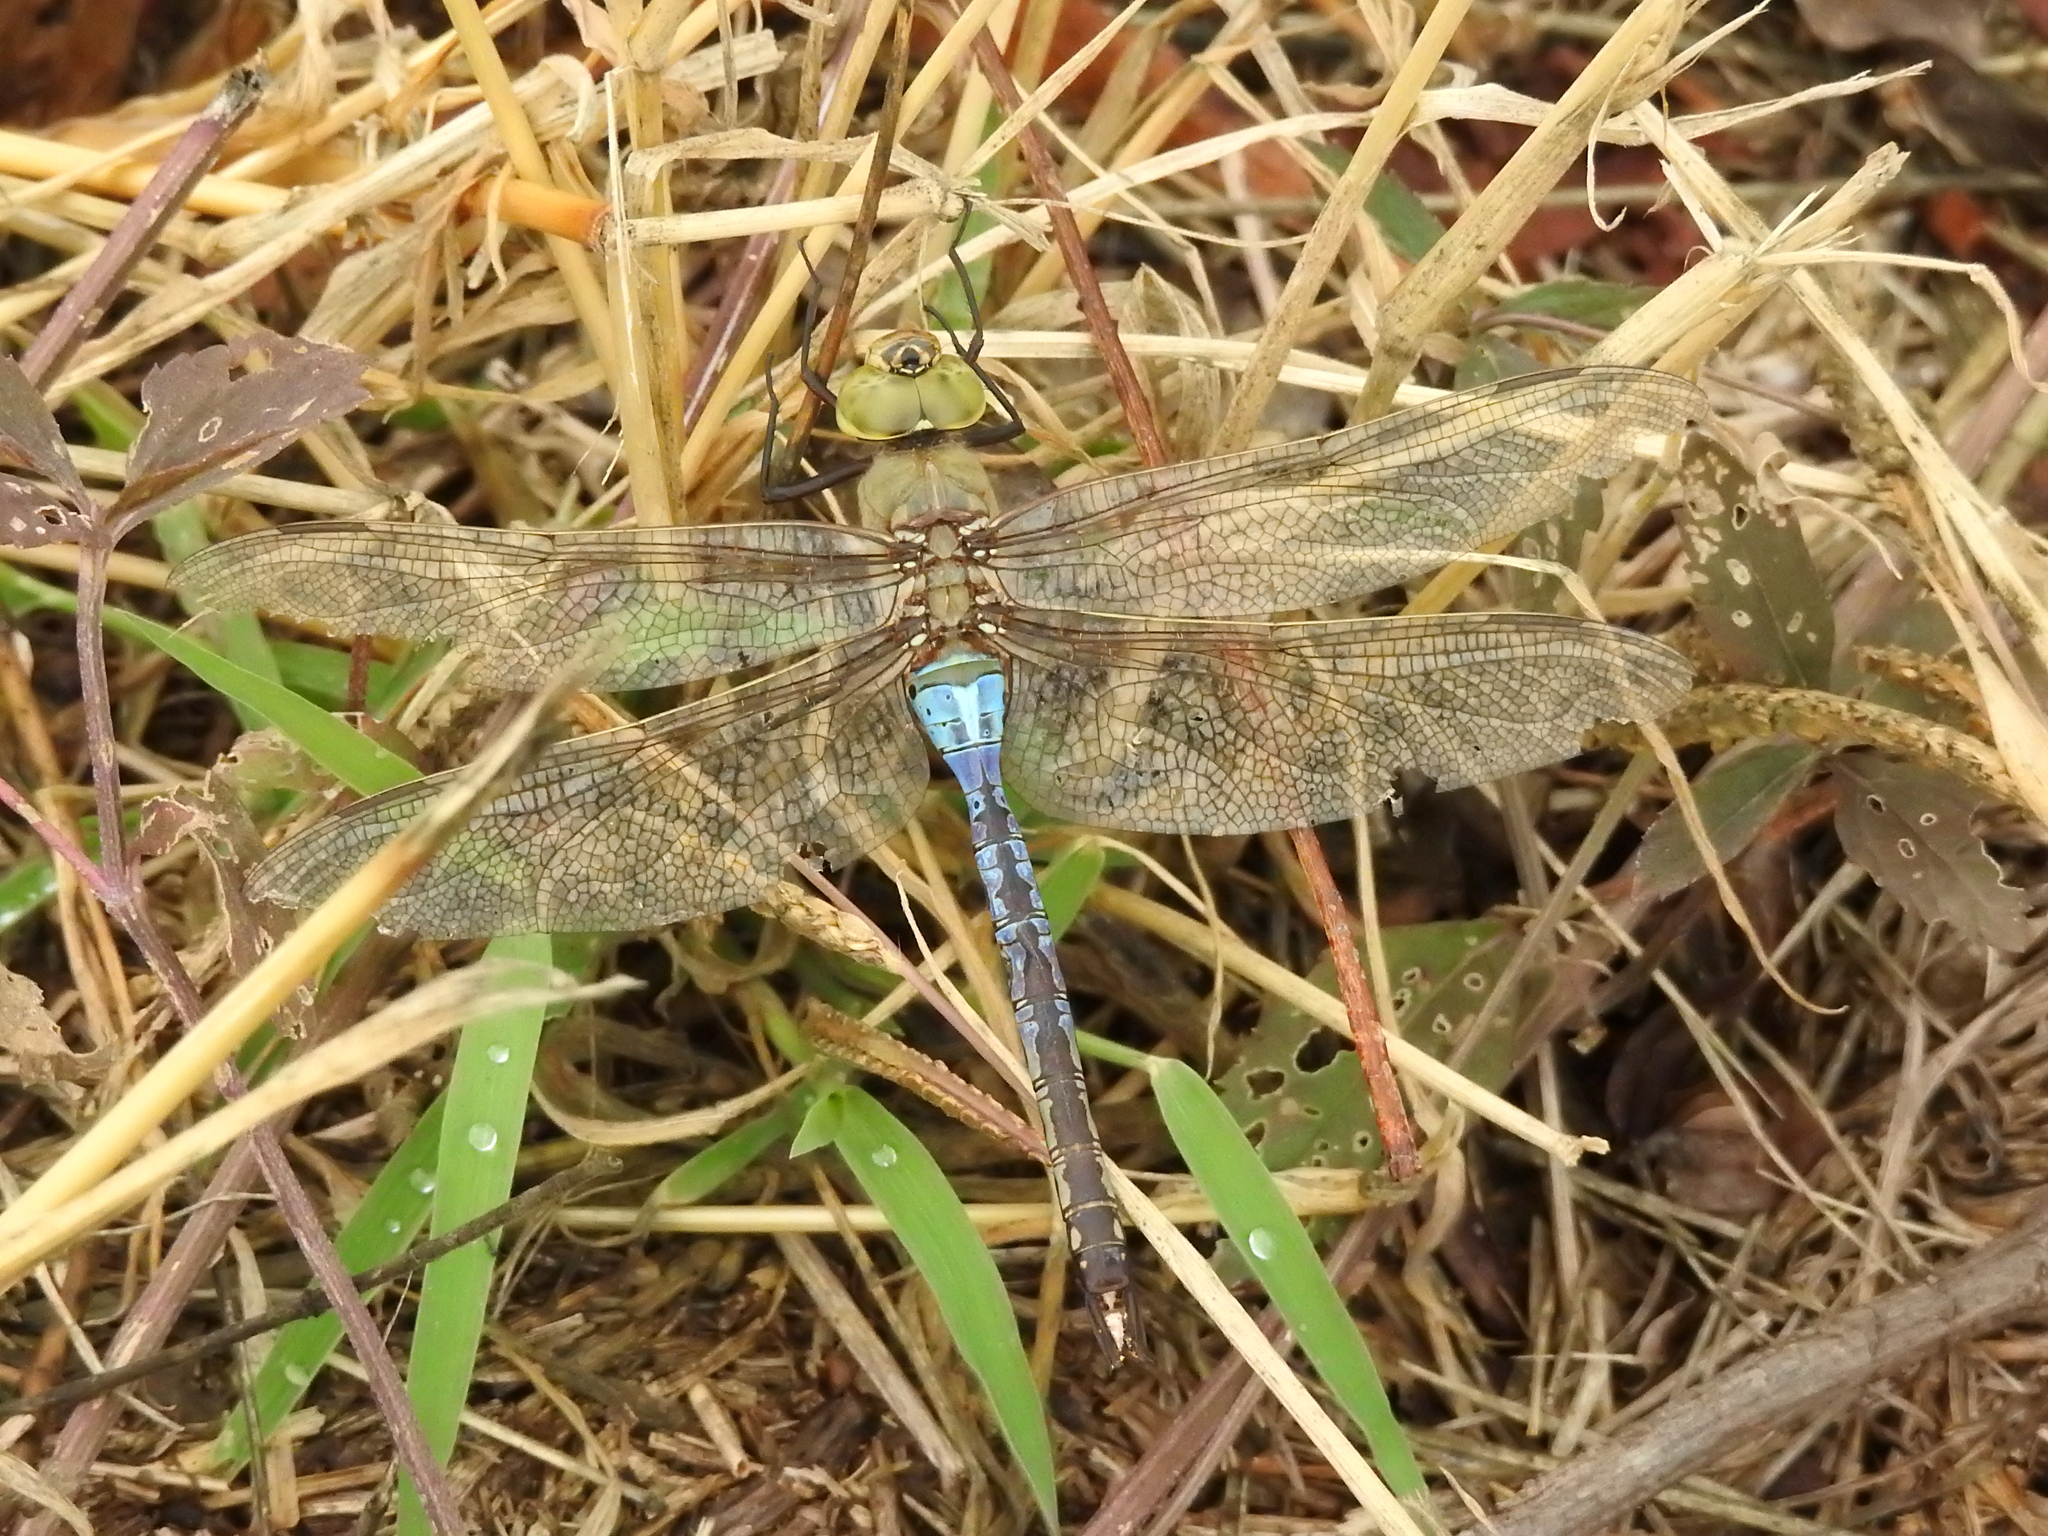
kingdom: Animalia
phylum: Arthropoda
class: Insecta
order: Odonata
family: Aeshnidae
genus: Anax
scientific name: Anax junius
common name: Common green darner
